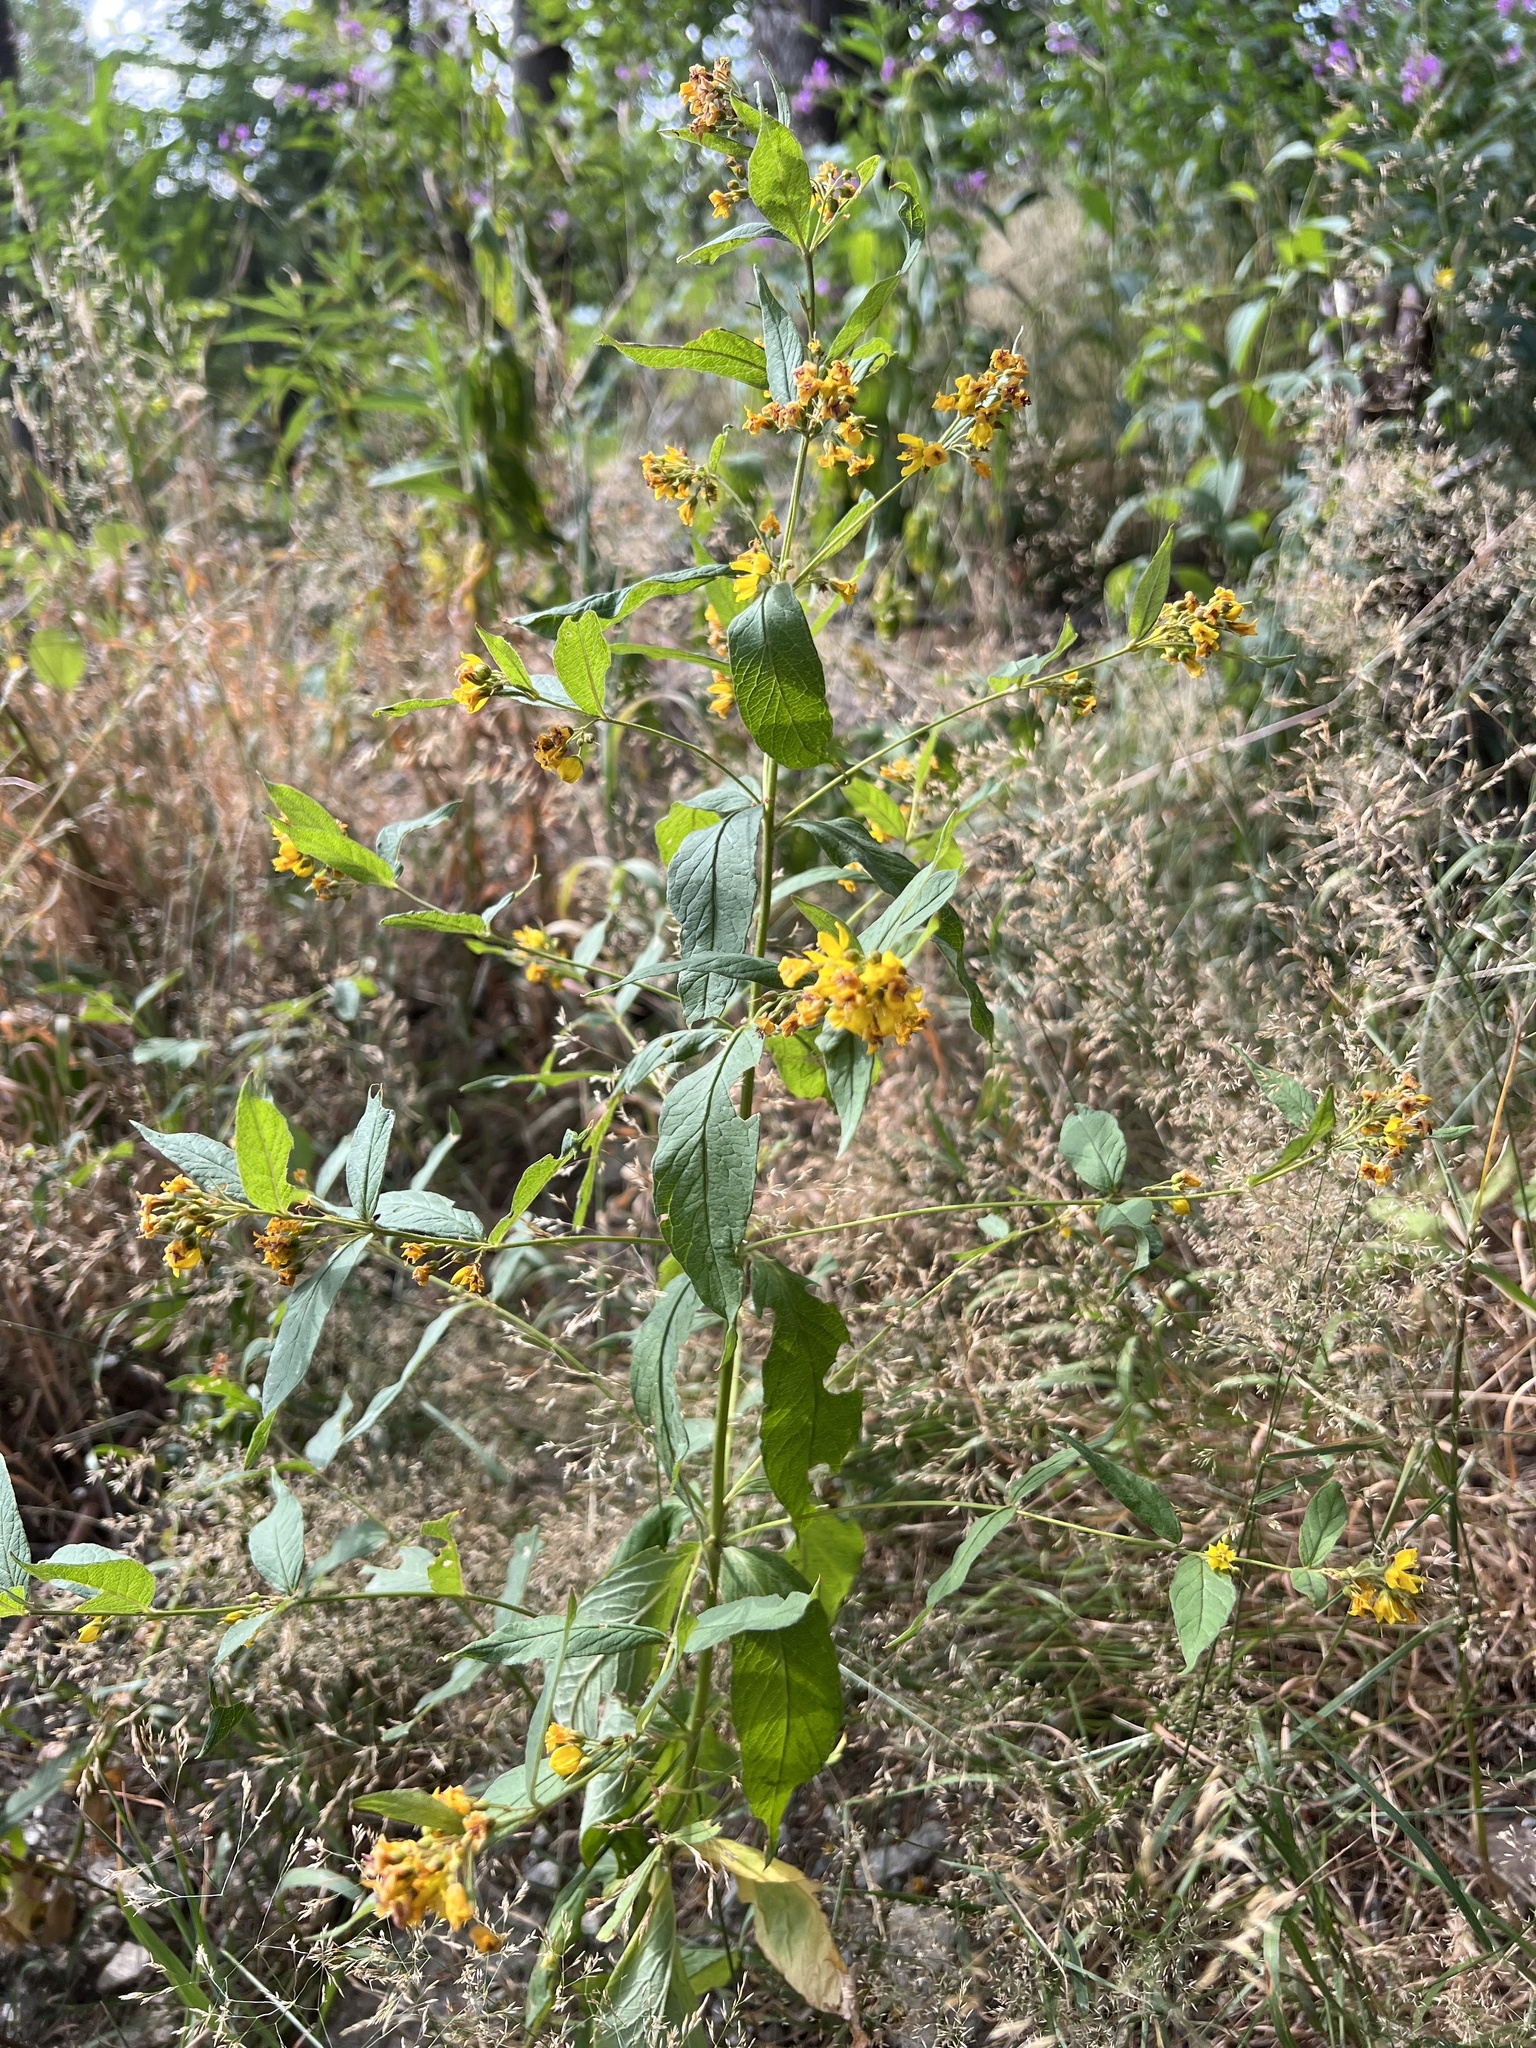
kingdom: Plantae
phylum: Tracheophyta
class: Magnoliopsida
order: Ericales
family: Primulaceae
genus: Lysimachia
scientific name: Lysimachia vulgaris
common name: Yellow loosestrife
